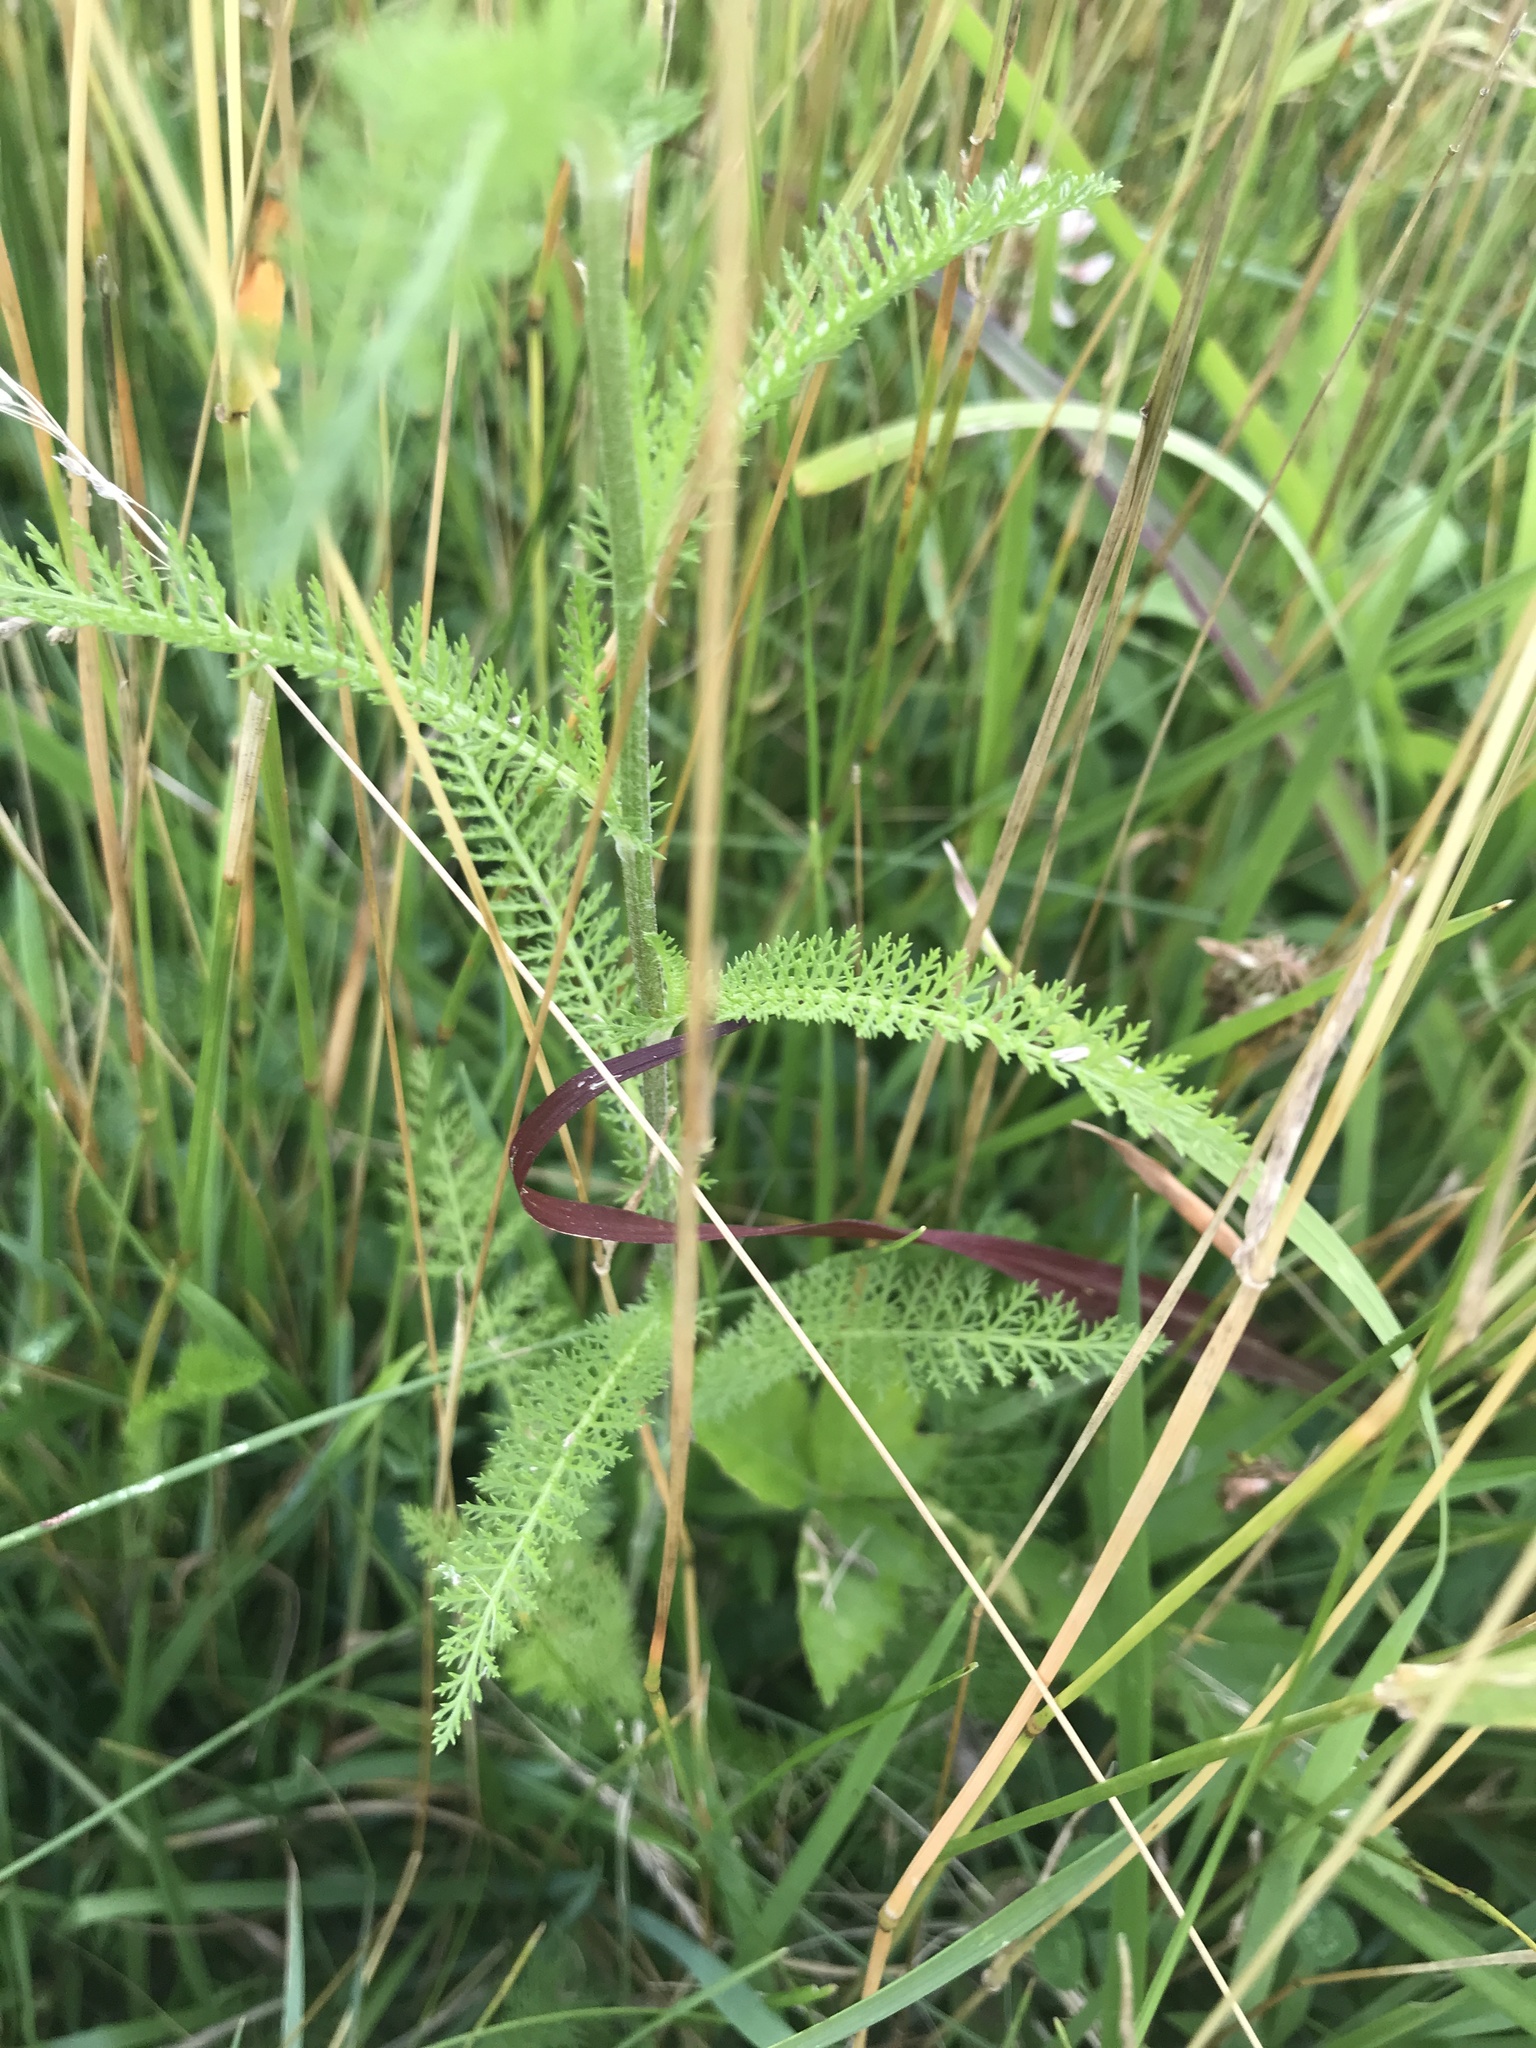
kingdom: Plantae
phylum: Tracheophyta
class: Magnoliopsida
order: Asterales
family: Asteraceae
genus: Achillea
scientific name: Achillea millefolium
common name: Yarrow
